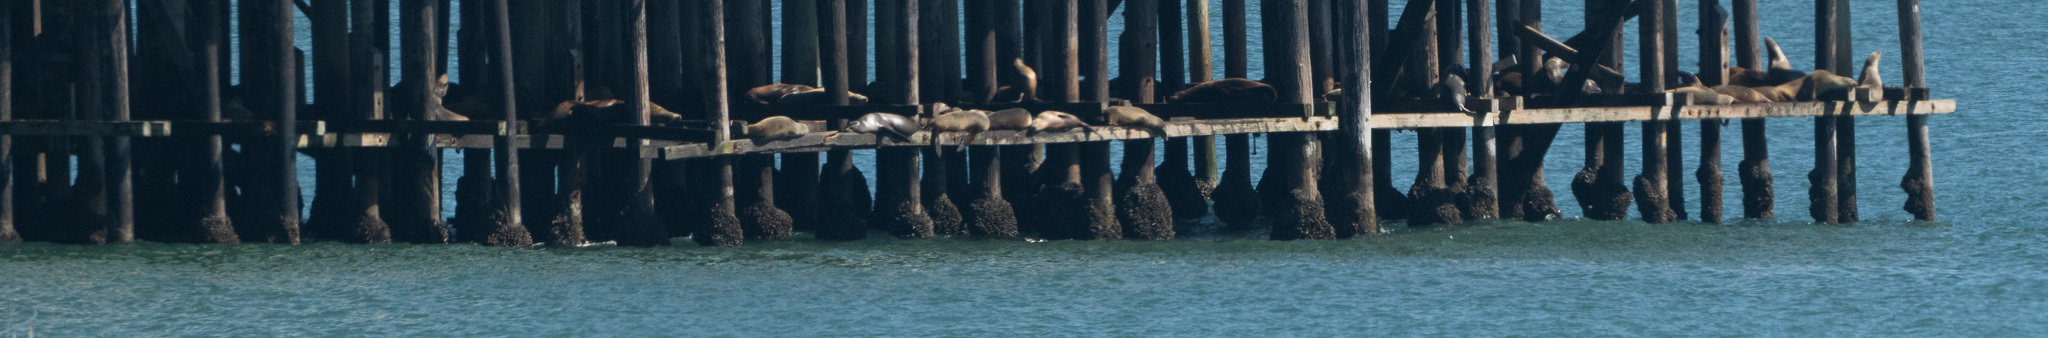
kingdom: Animalia
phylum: Chordata
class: Mammalia
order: Carnivora
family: Otariidae
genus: Zalophus
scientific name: Zalophus californianus
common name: California sea lion
